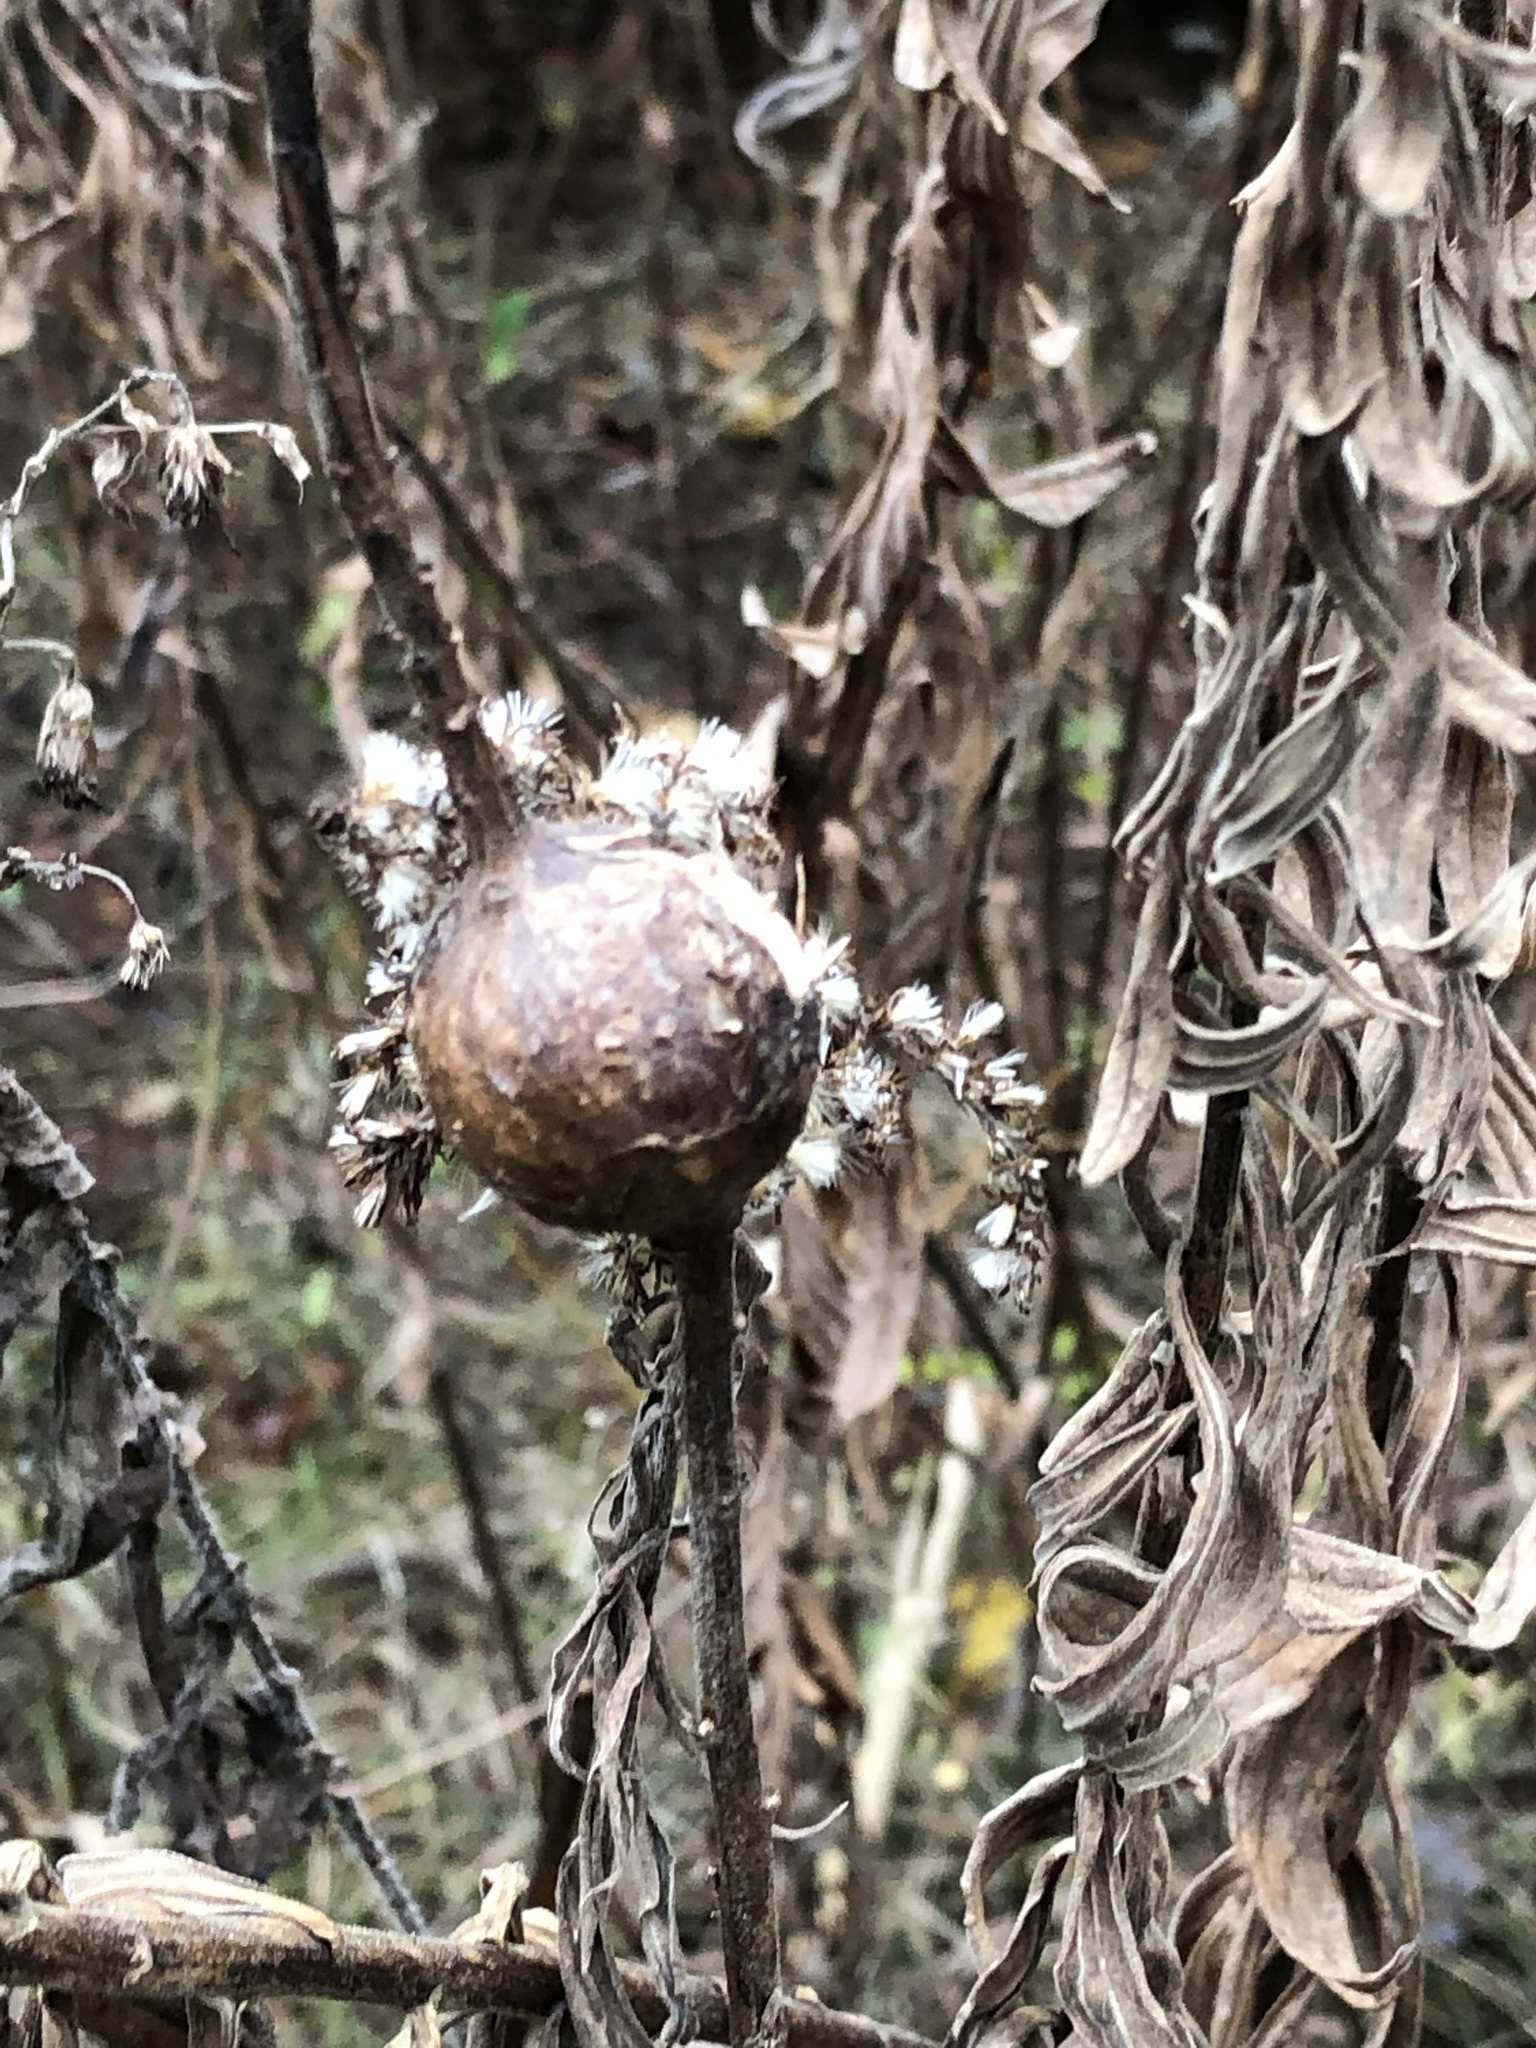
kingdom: Animalia
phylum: Arthropoda
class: Insecta
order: Diptera
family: Tephritidae
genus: Eurosta
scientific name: Eurosta solidaginis
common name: Goldenrod gall fly
